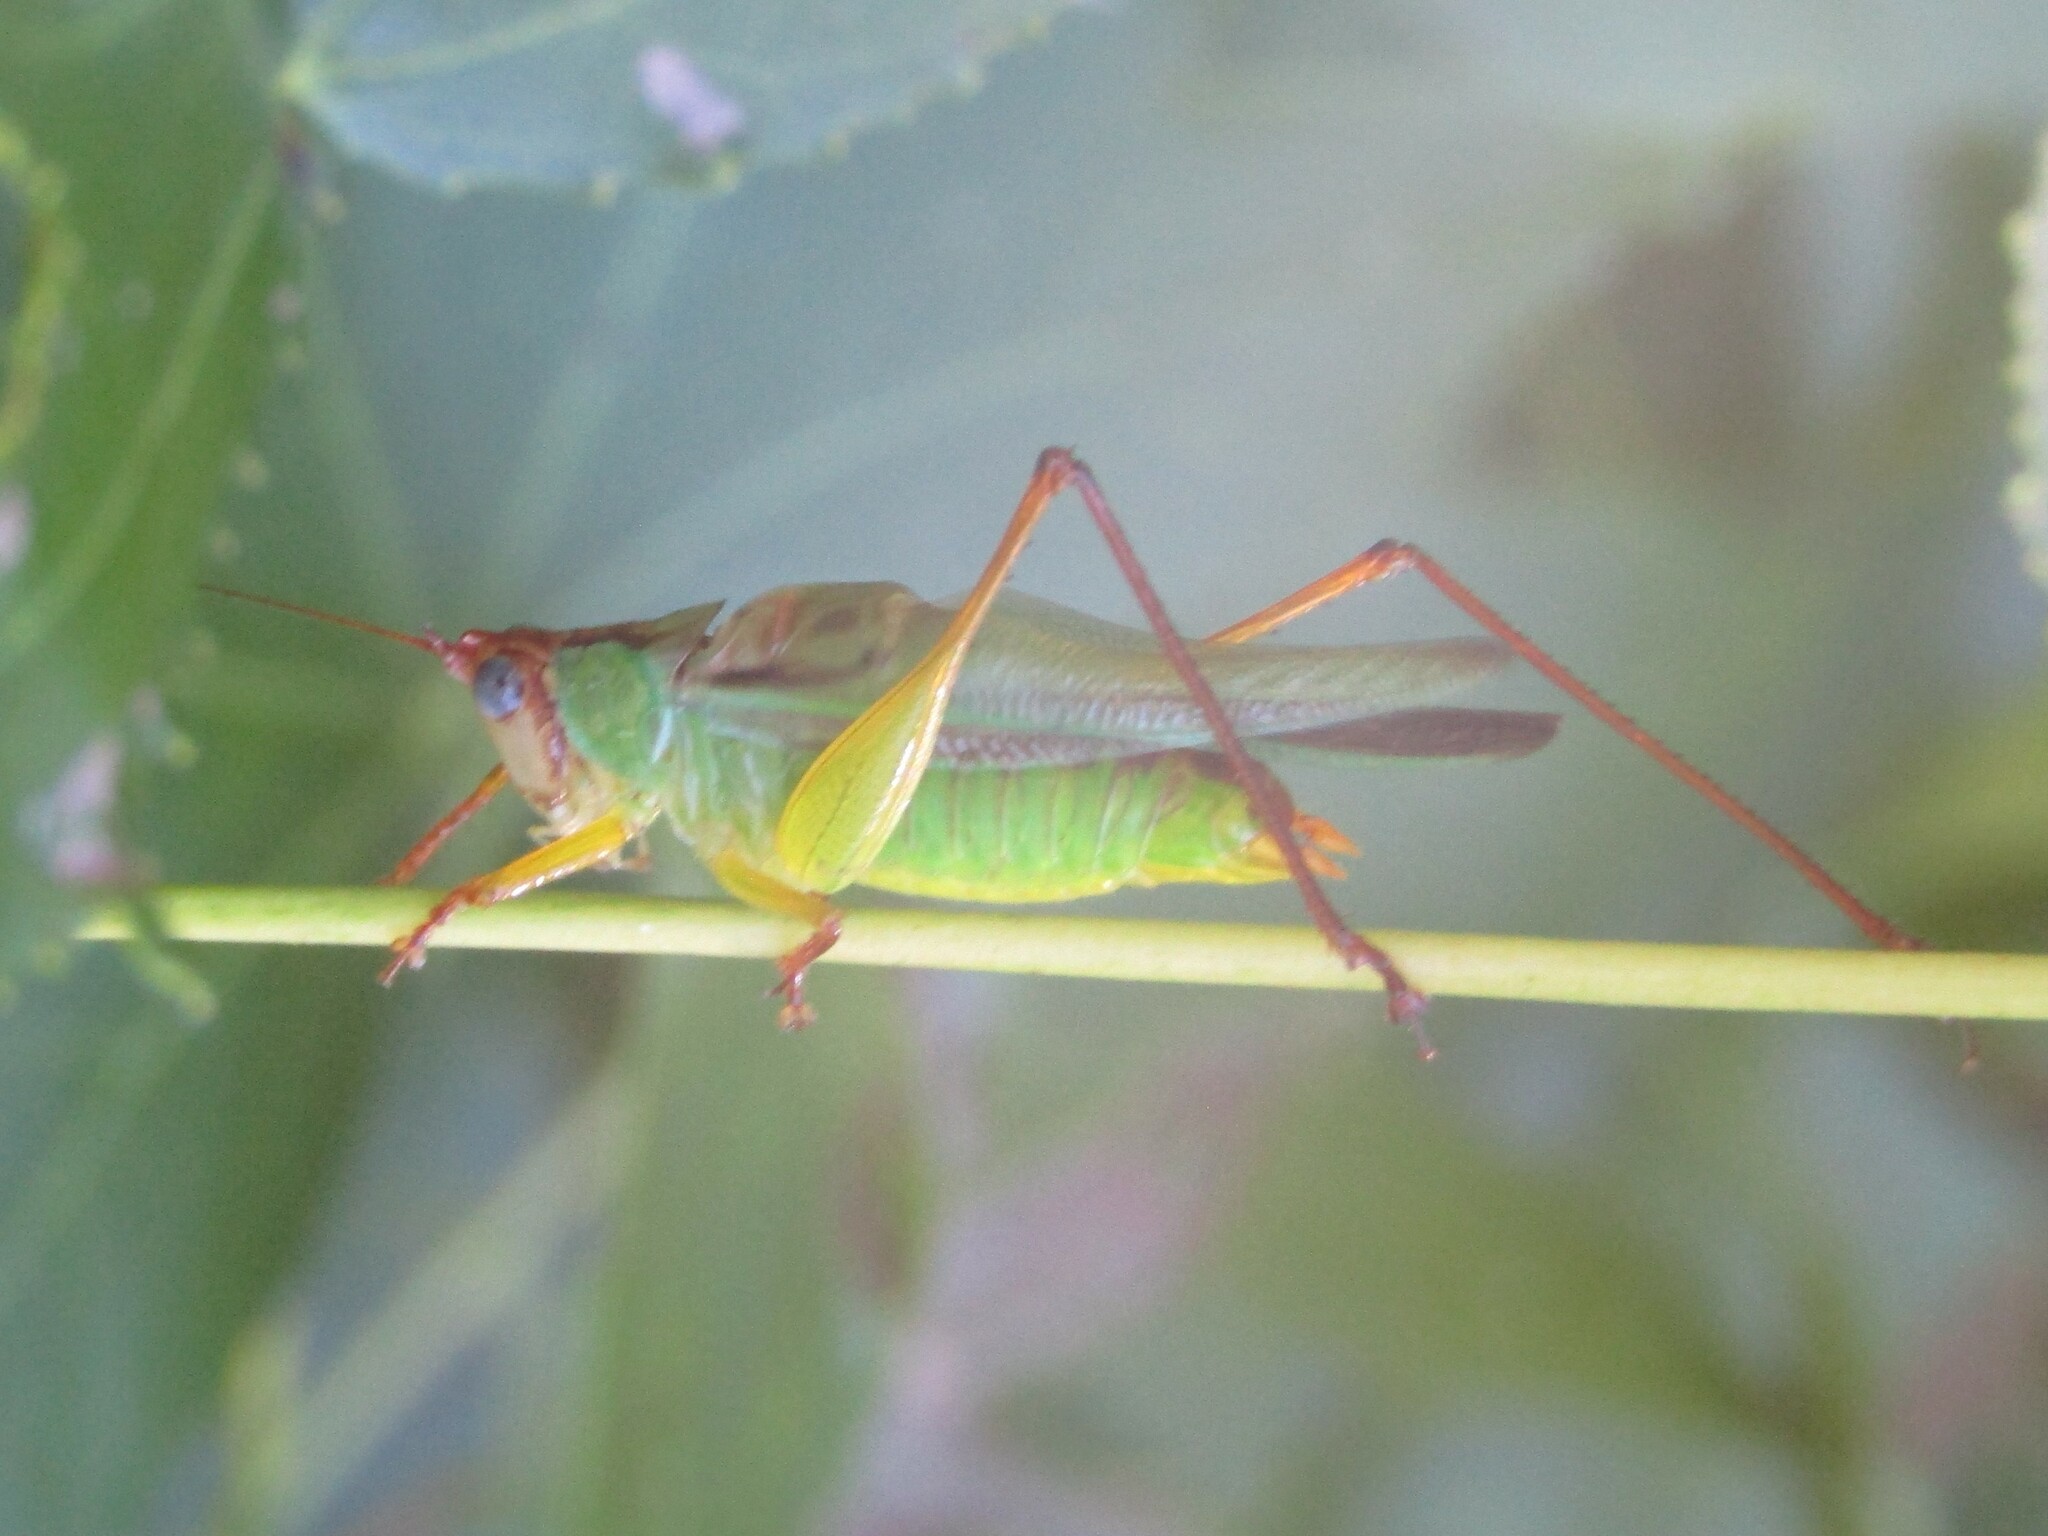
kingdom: Animalia
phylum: Arthropoda
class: Insecta
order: Orthoptera
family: Tettigoniidae
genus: Orchelimum
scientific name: Orchelimum pulchellum
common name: Handsome meadow katydid
